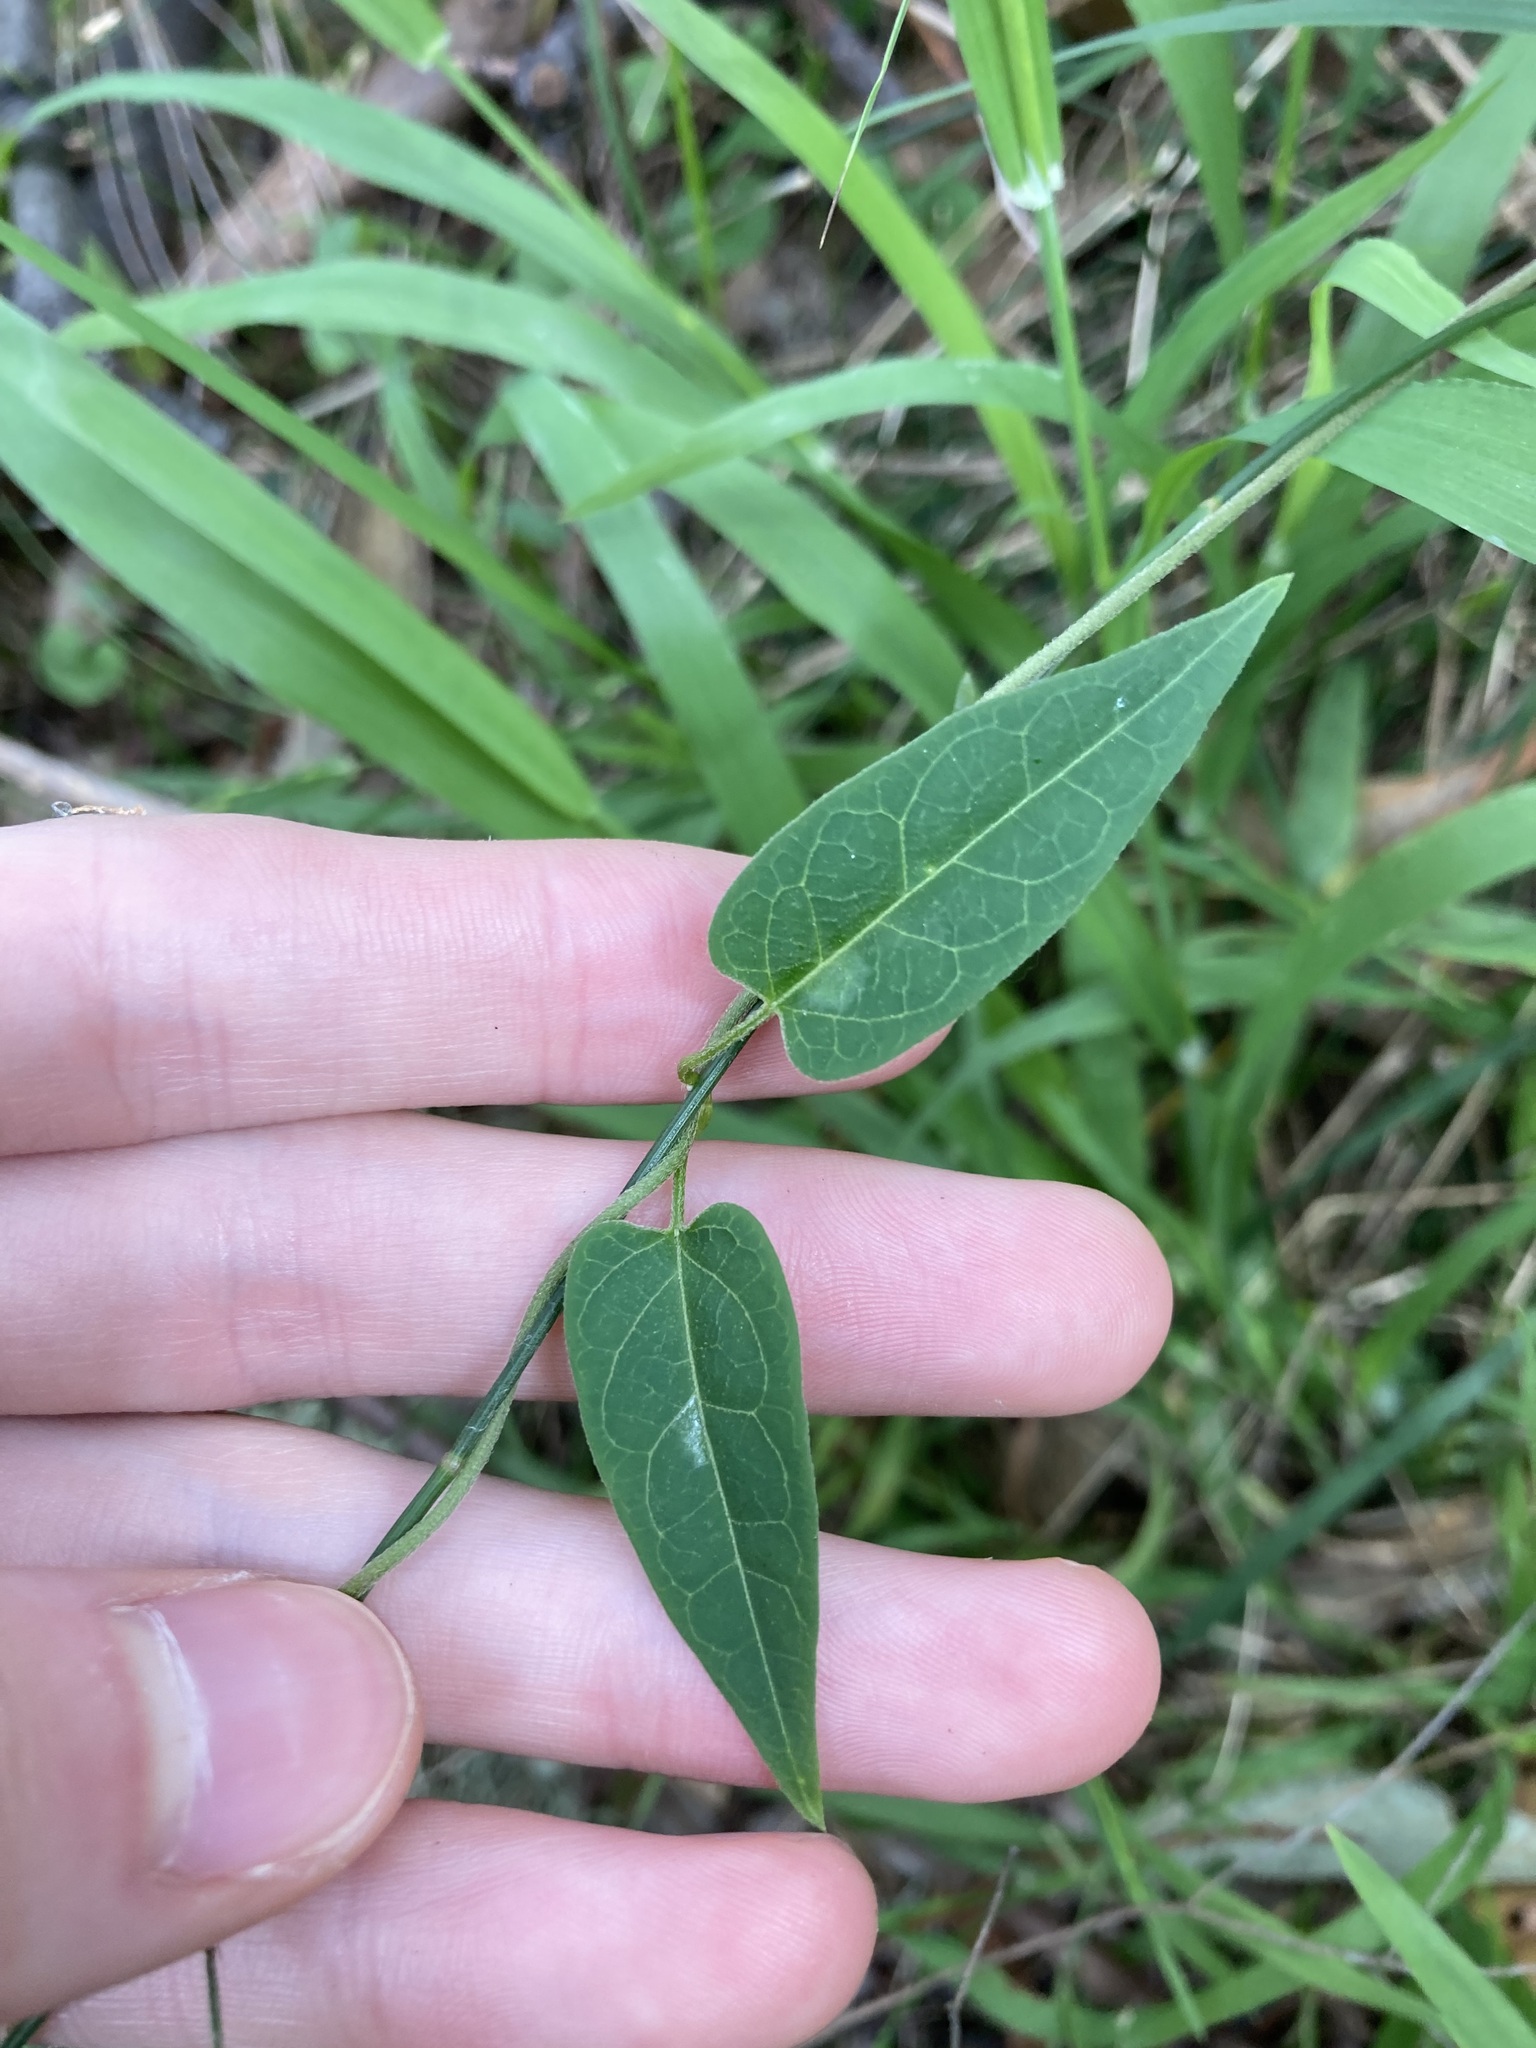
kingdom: Plantae
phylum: Tracheophyta
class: Magnoliopsida
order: Gentianales
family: Apocynaceae
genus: Vincetoxicum
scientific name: Vincetoxicum woollsii
